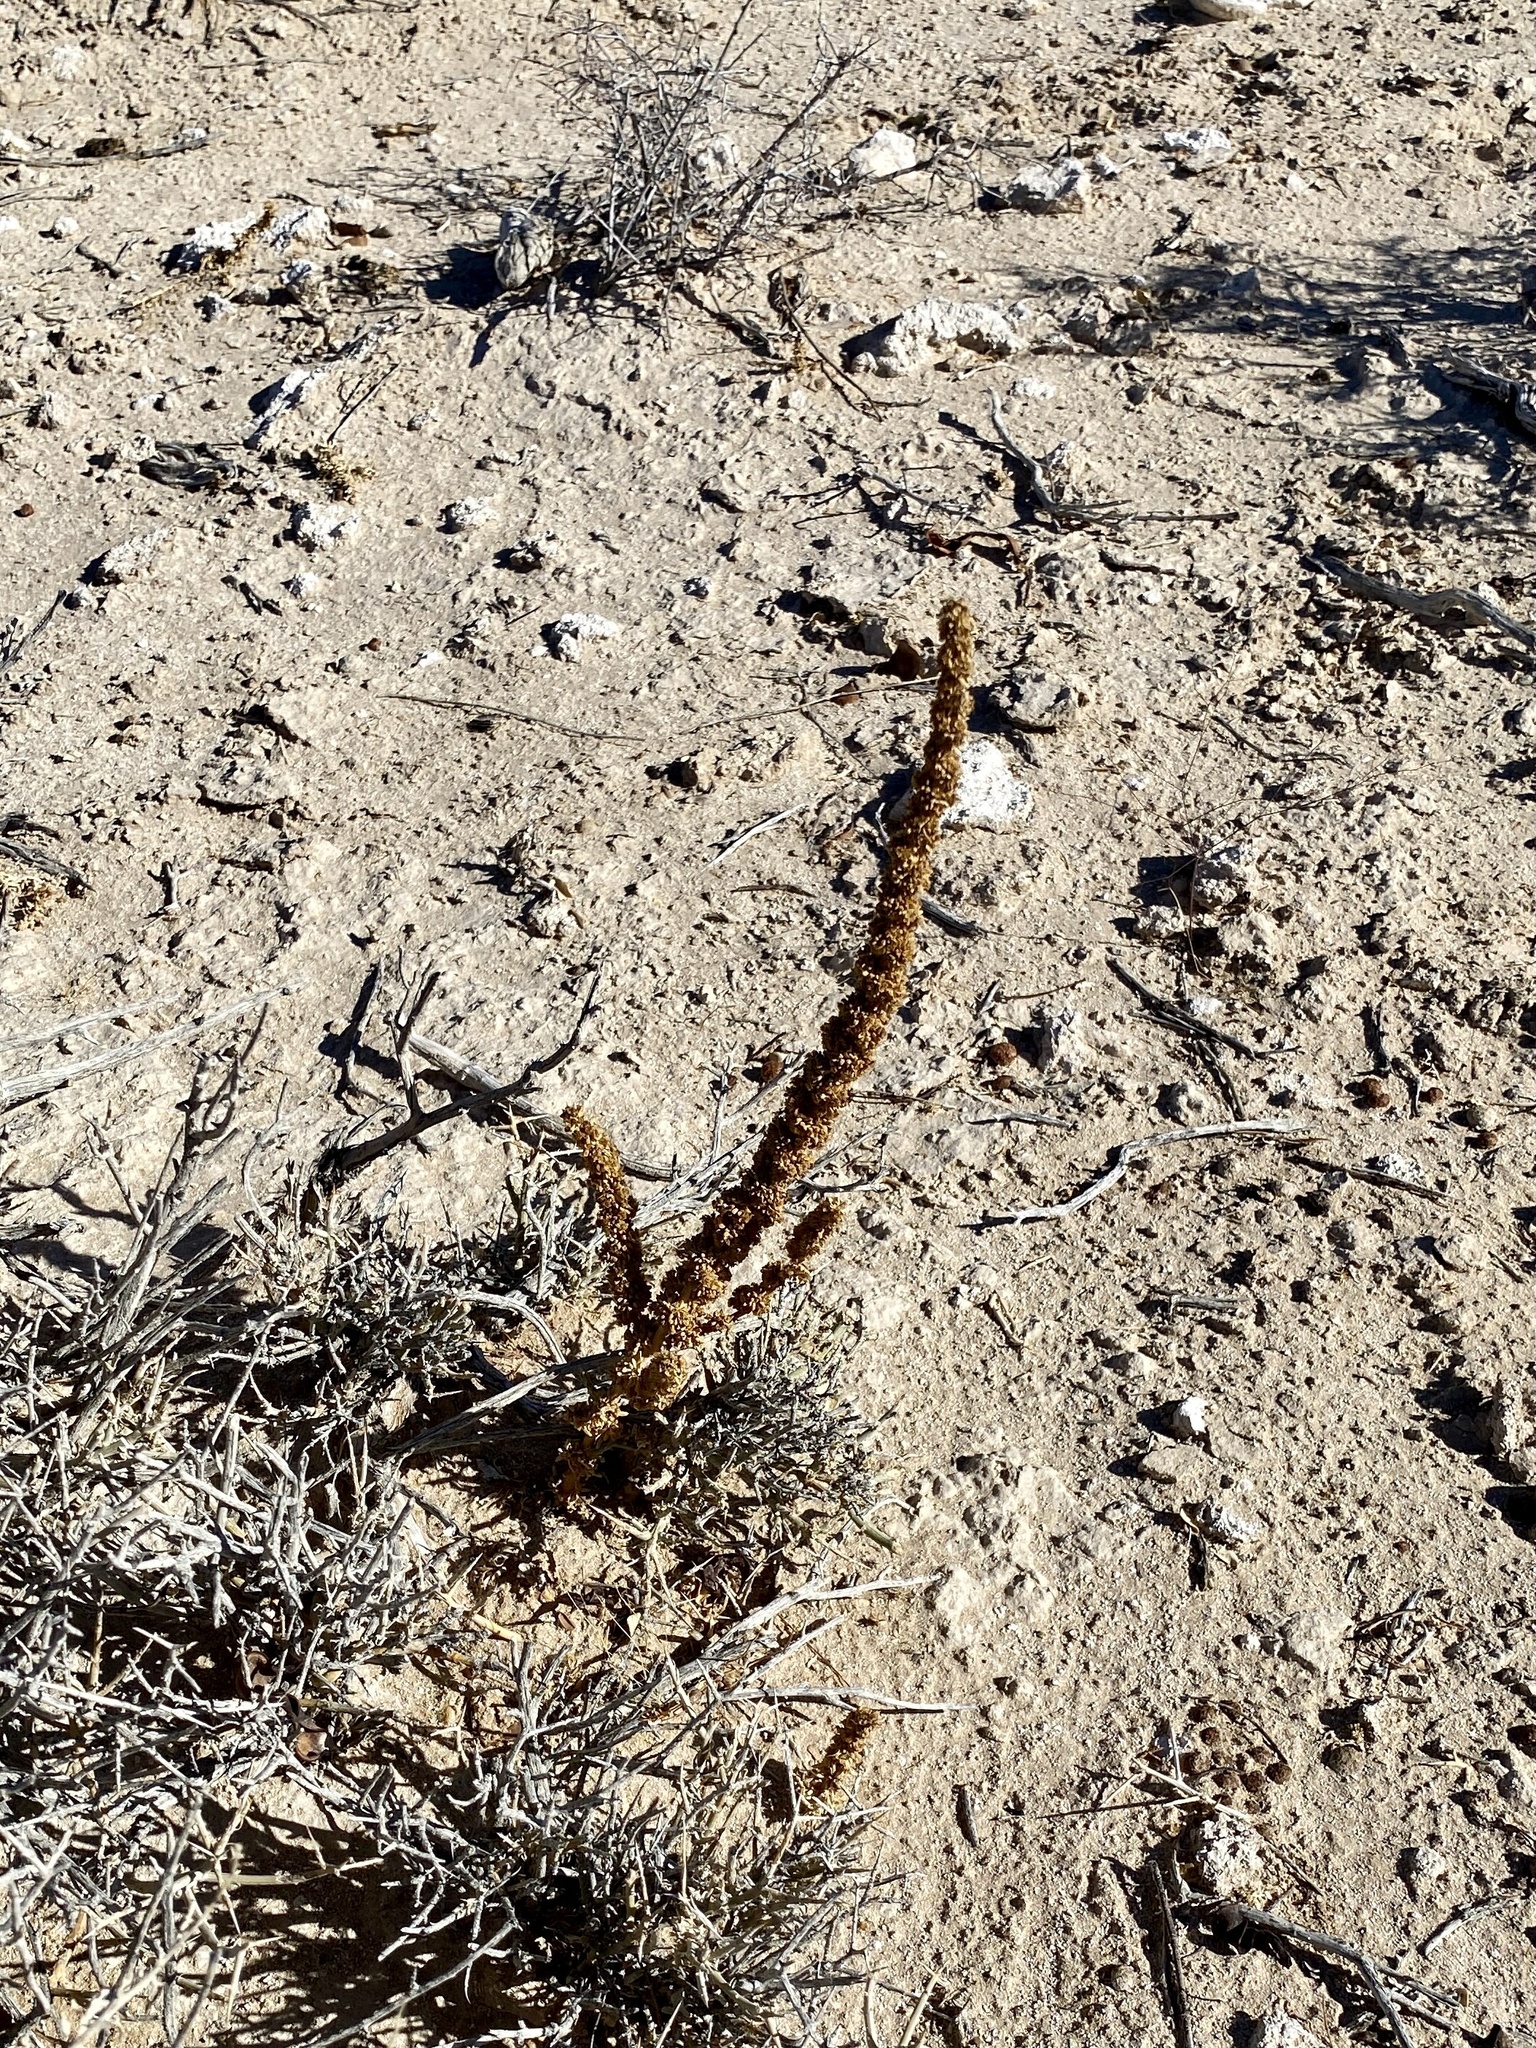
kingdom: Plantae
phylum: Tracheophyta
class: Magnoliopsida
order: Caryophyllales
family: Amaranthaceae
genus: Halogeton
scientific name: Halogeton glomeratus
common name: Saltlover
